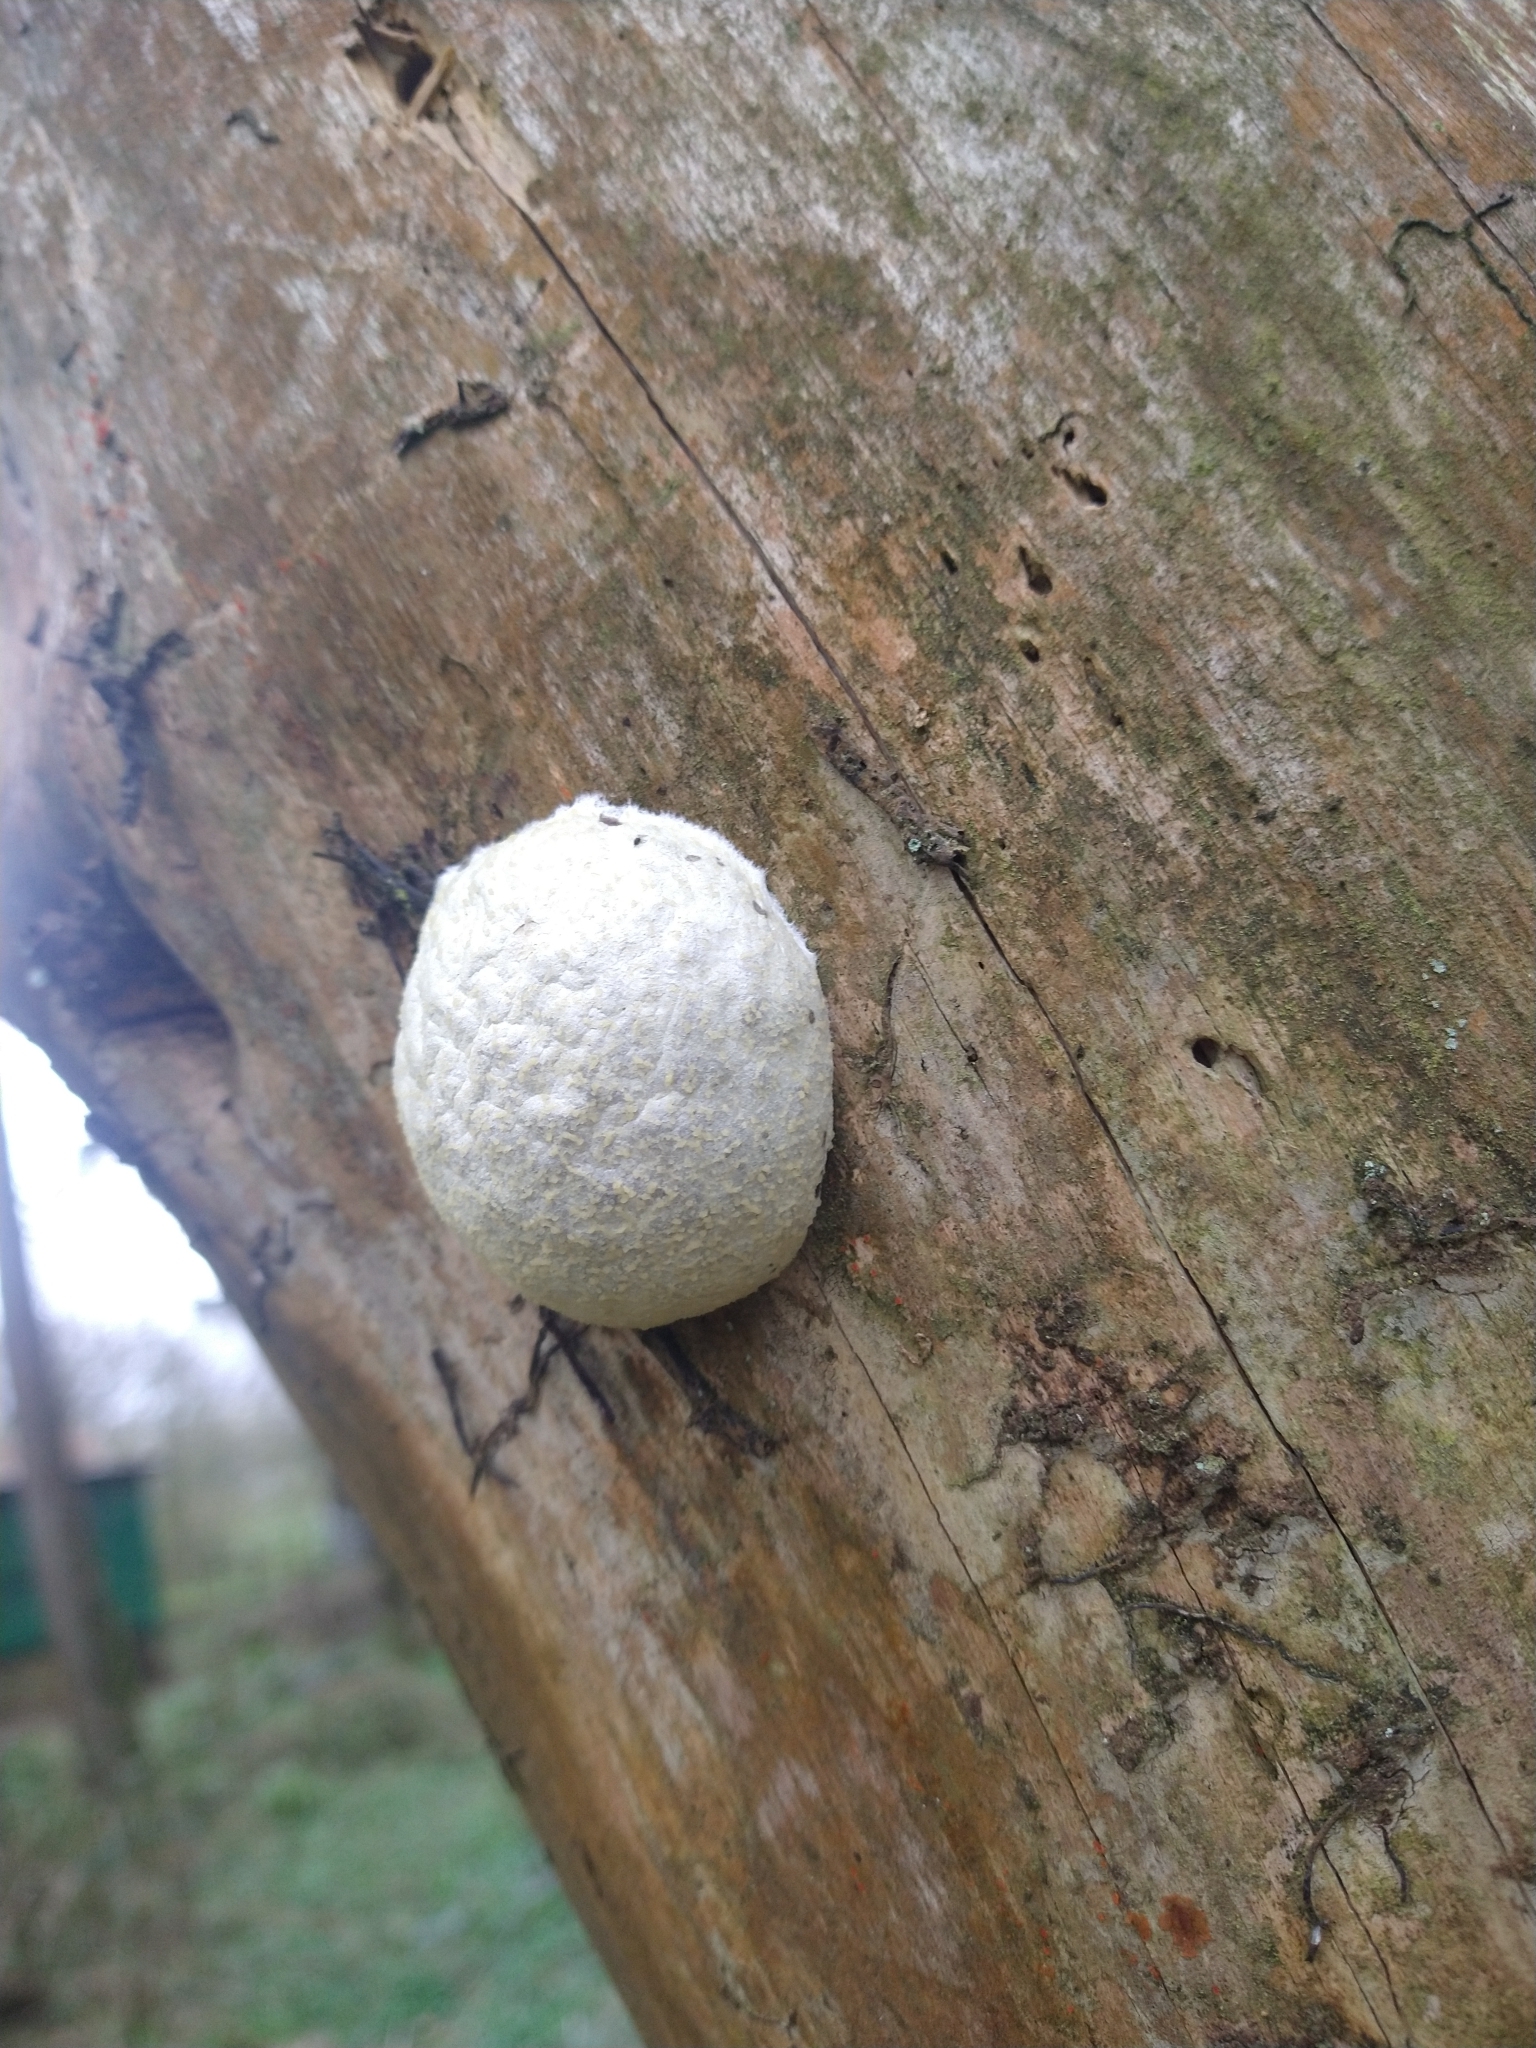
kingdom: Protozoa
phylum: Mycetozoa
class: Myxomycetes
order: Cribrariales
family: Tubiferaceae
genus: Reticularia
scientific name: Reticularia lycoperdon
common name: False puffball
